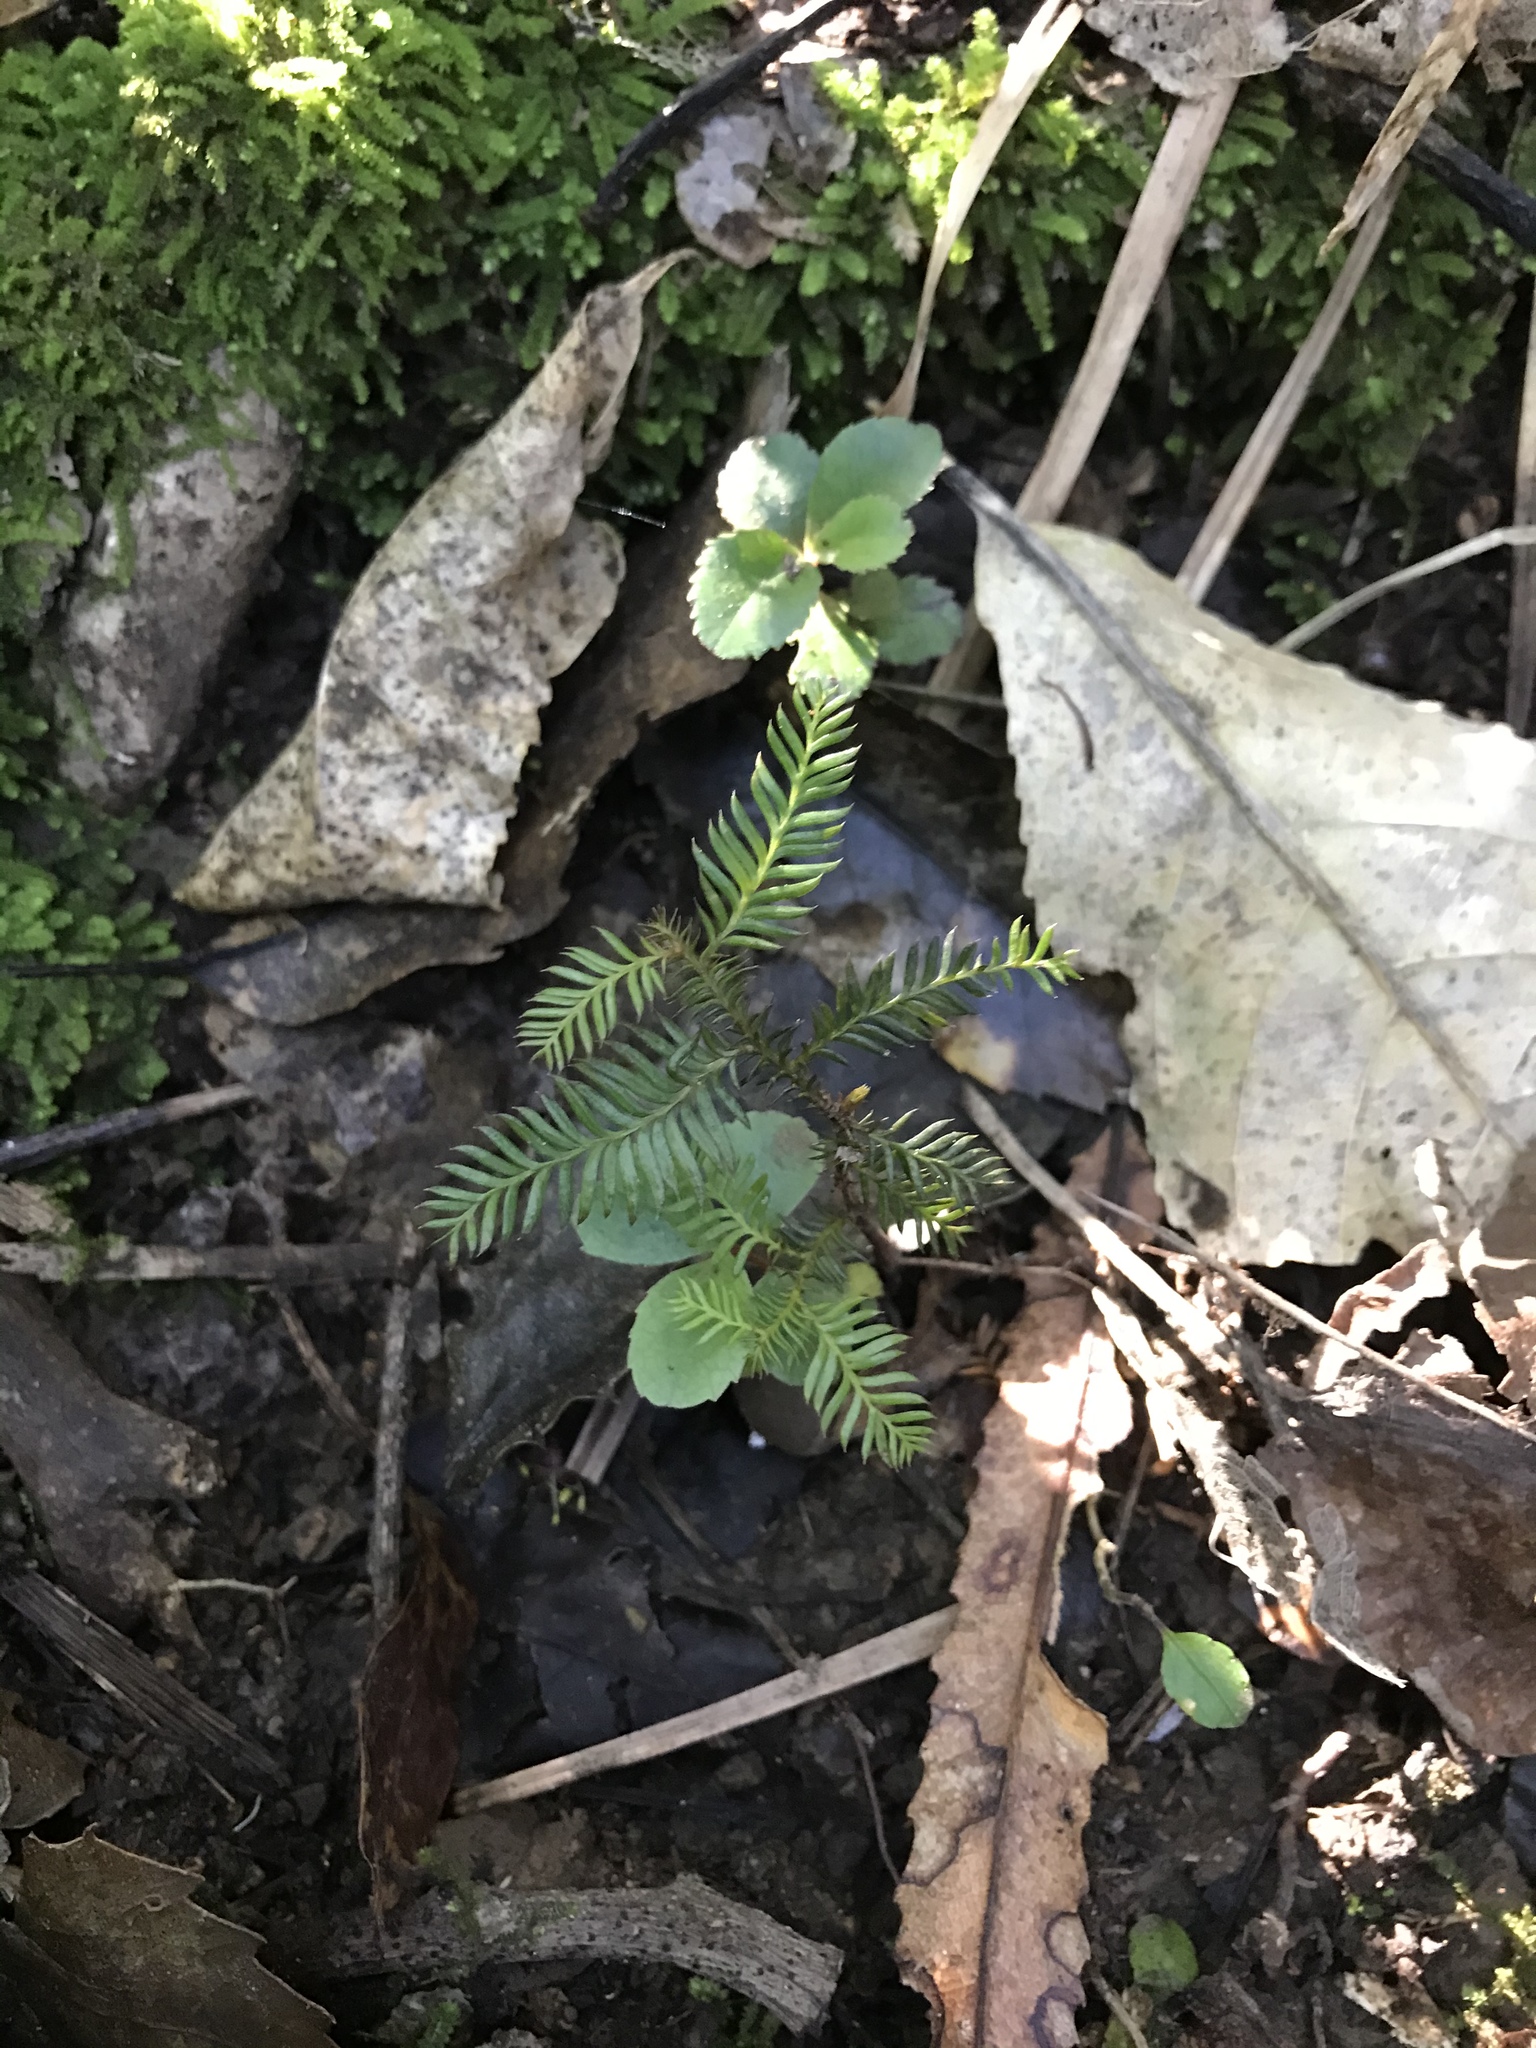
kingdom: Plantae
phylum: Tracheophyta
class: Pinopsida
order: Pinales
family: Podocarpaceae
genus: Dacrycarpus
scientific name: Dacrycarpus dacrydioides
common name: White pine
